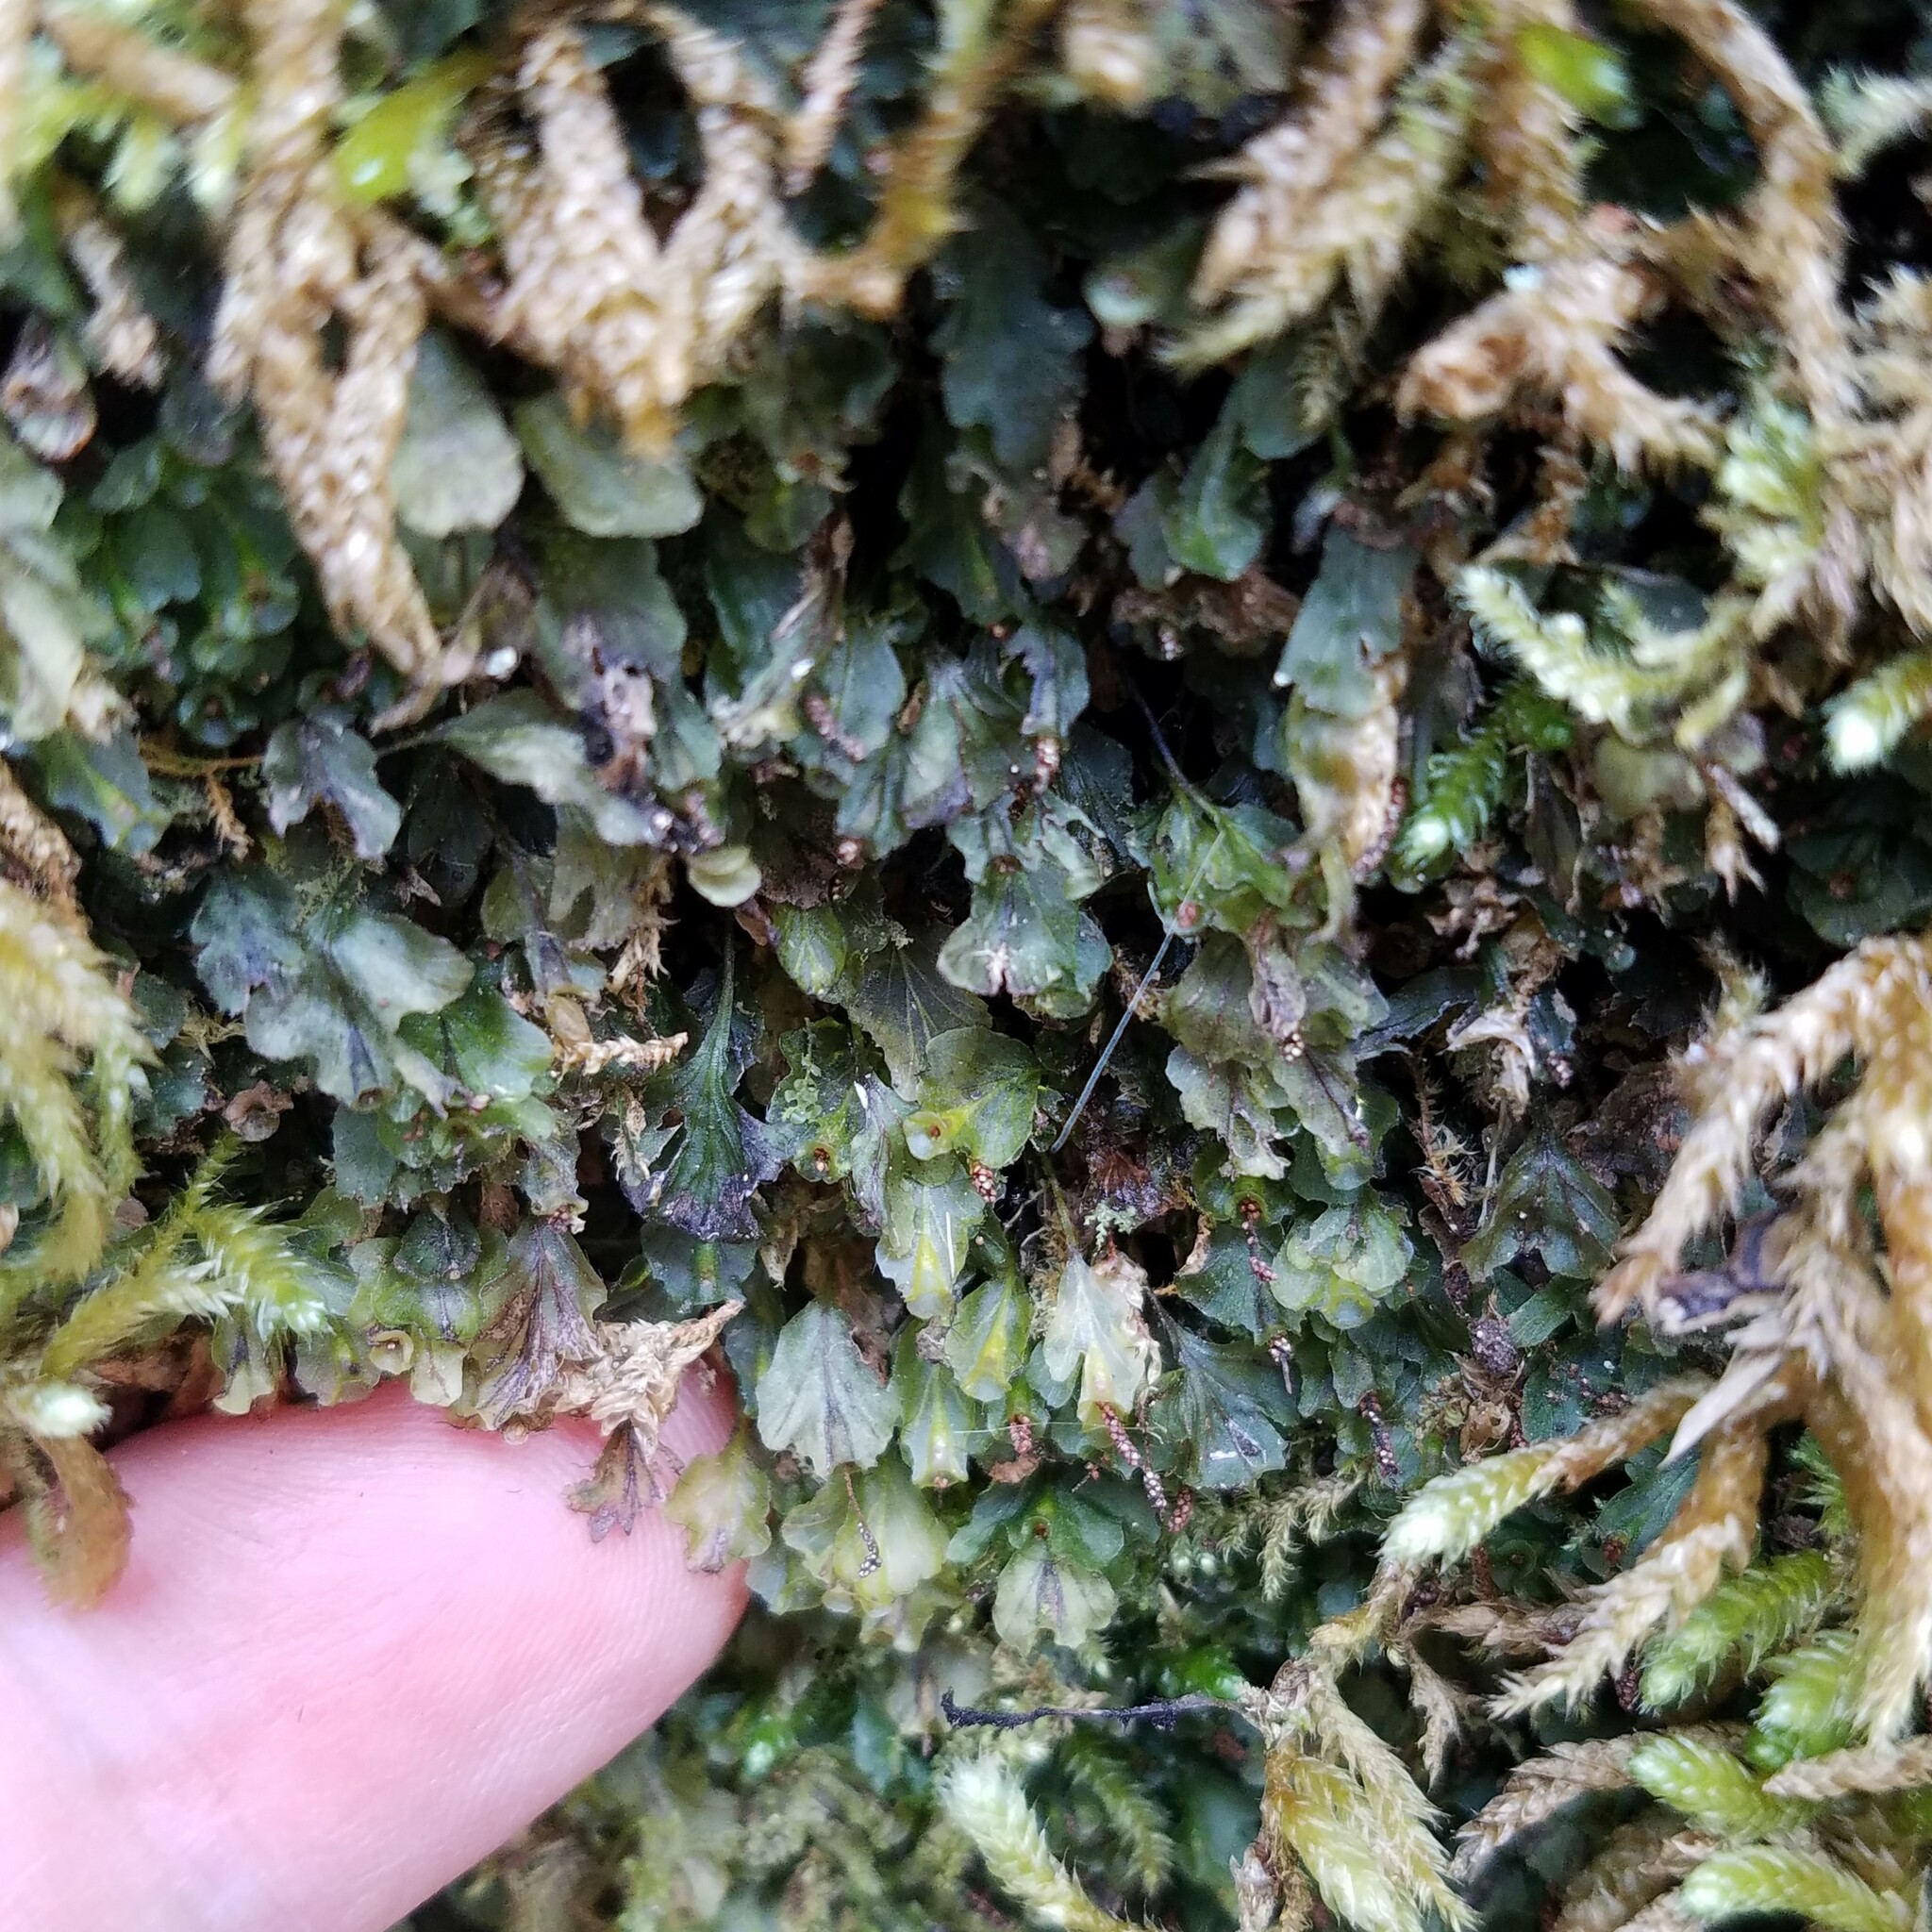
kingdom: Plantae
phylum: Tracheophyta
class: Polypodiopsida
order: Hymenophyllales
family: Hymenophyllaceae
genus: Didymoglossum
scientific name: Didymoglossum petersii
